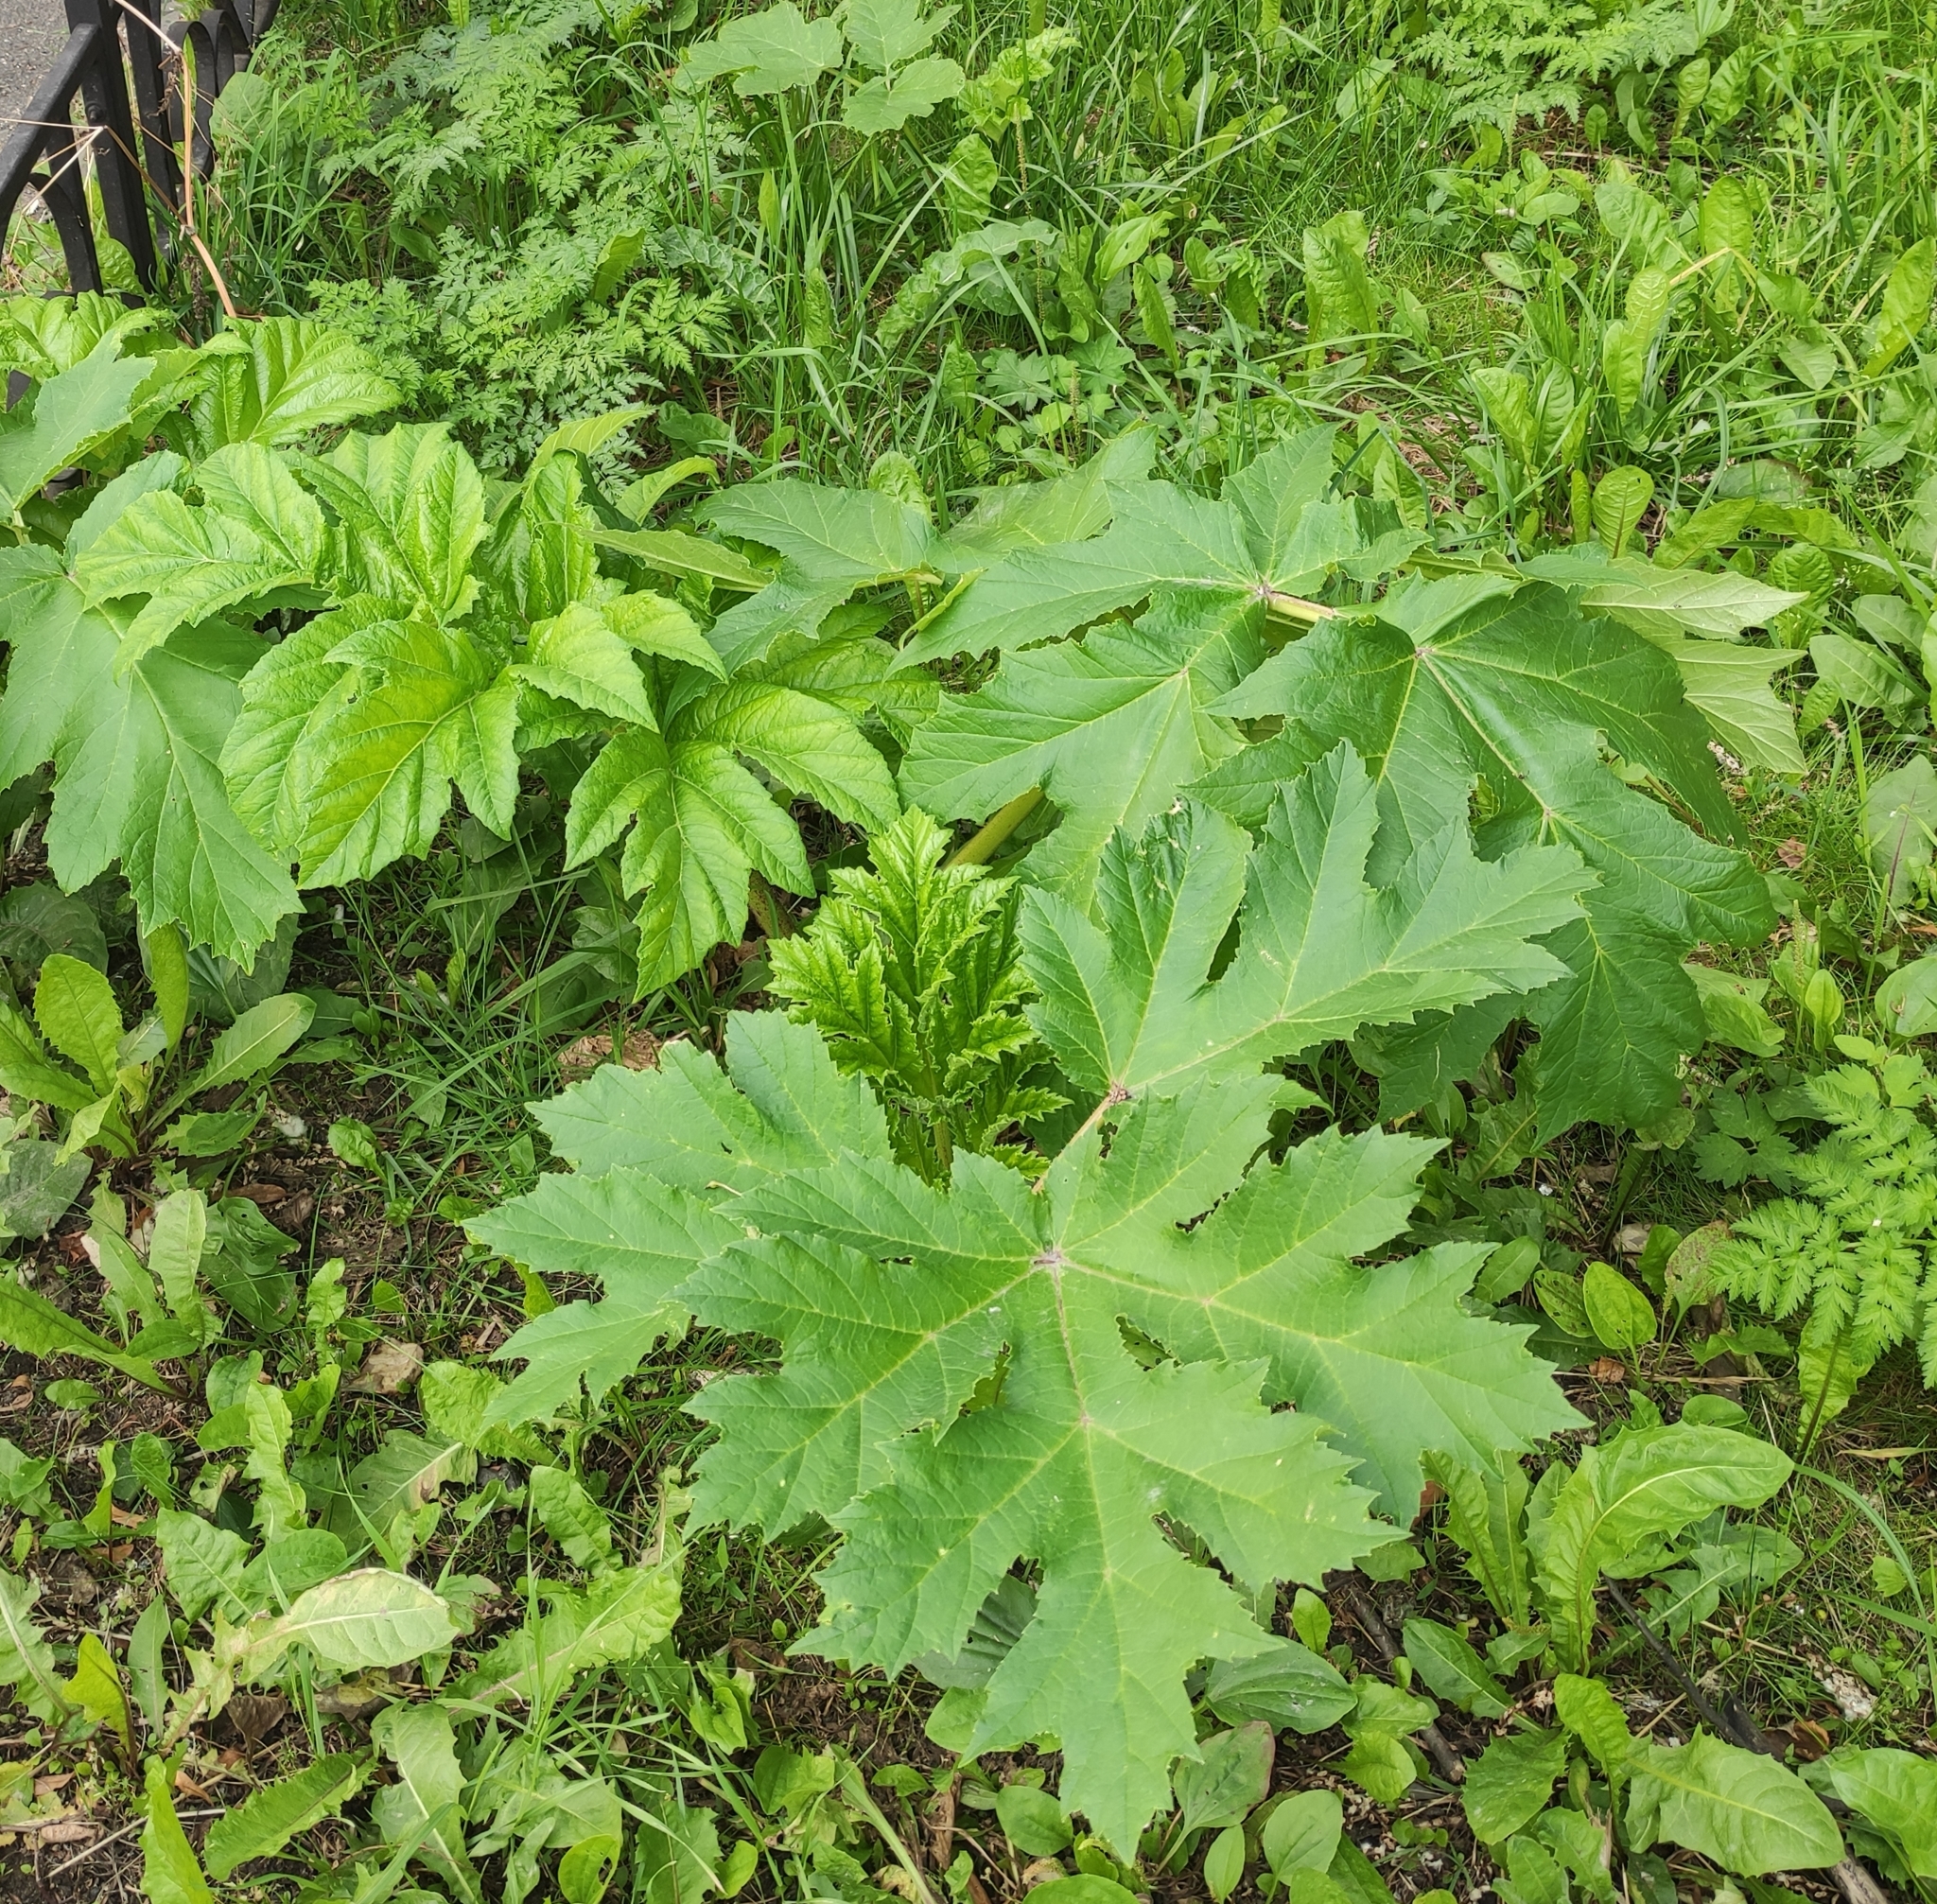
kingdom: Plantae
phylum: Tracheophyta
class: Magnoliopsida
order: Apiales
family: Apiaceae
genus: Heracleum
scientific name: Heracleum sosnowskyi
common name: Sosnowsky's hogweed
